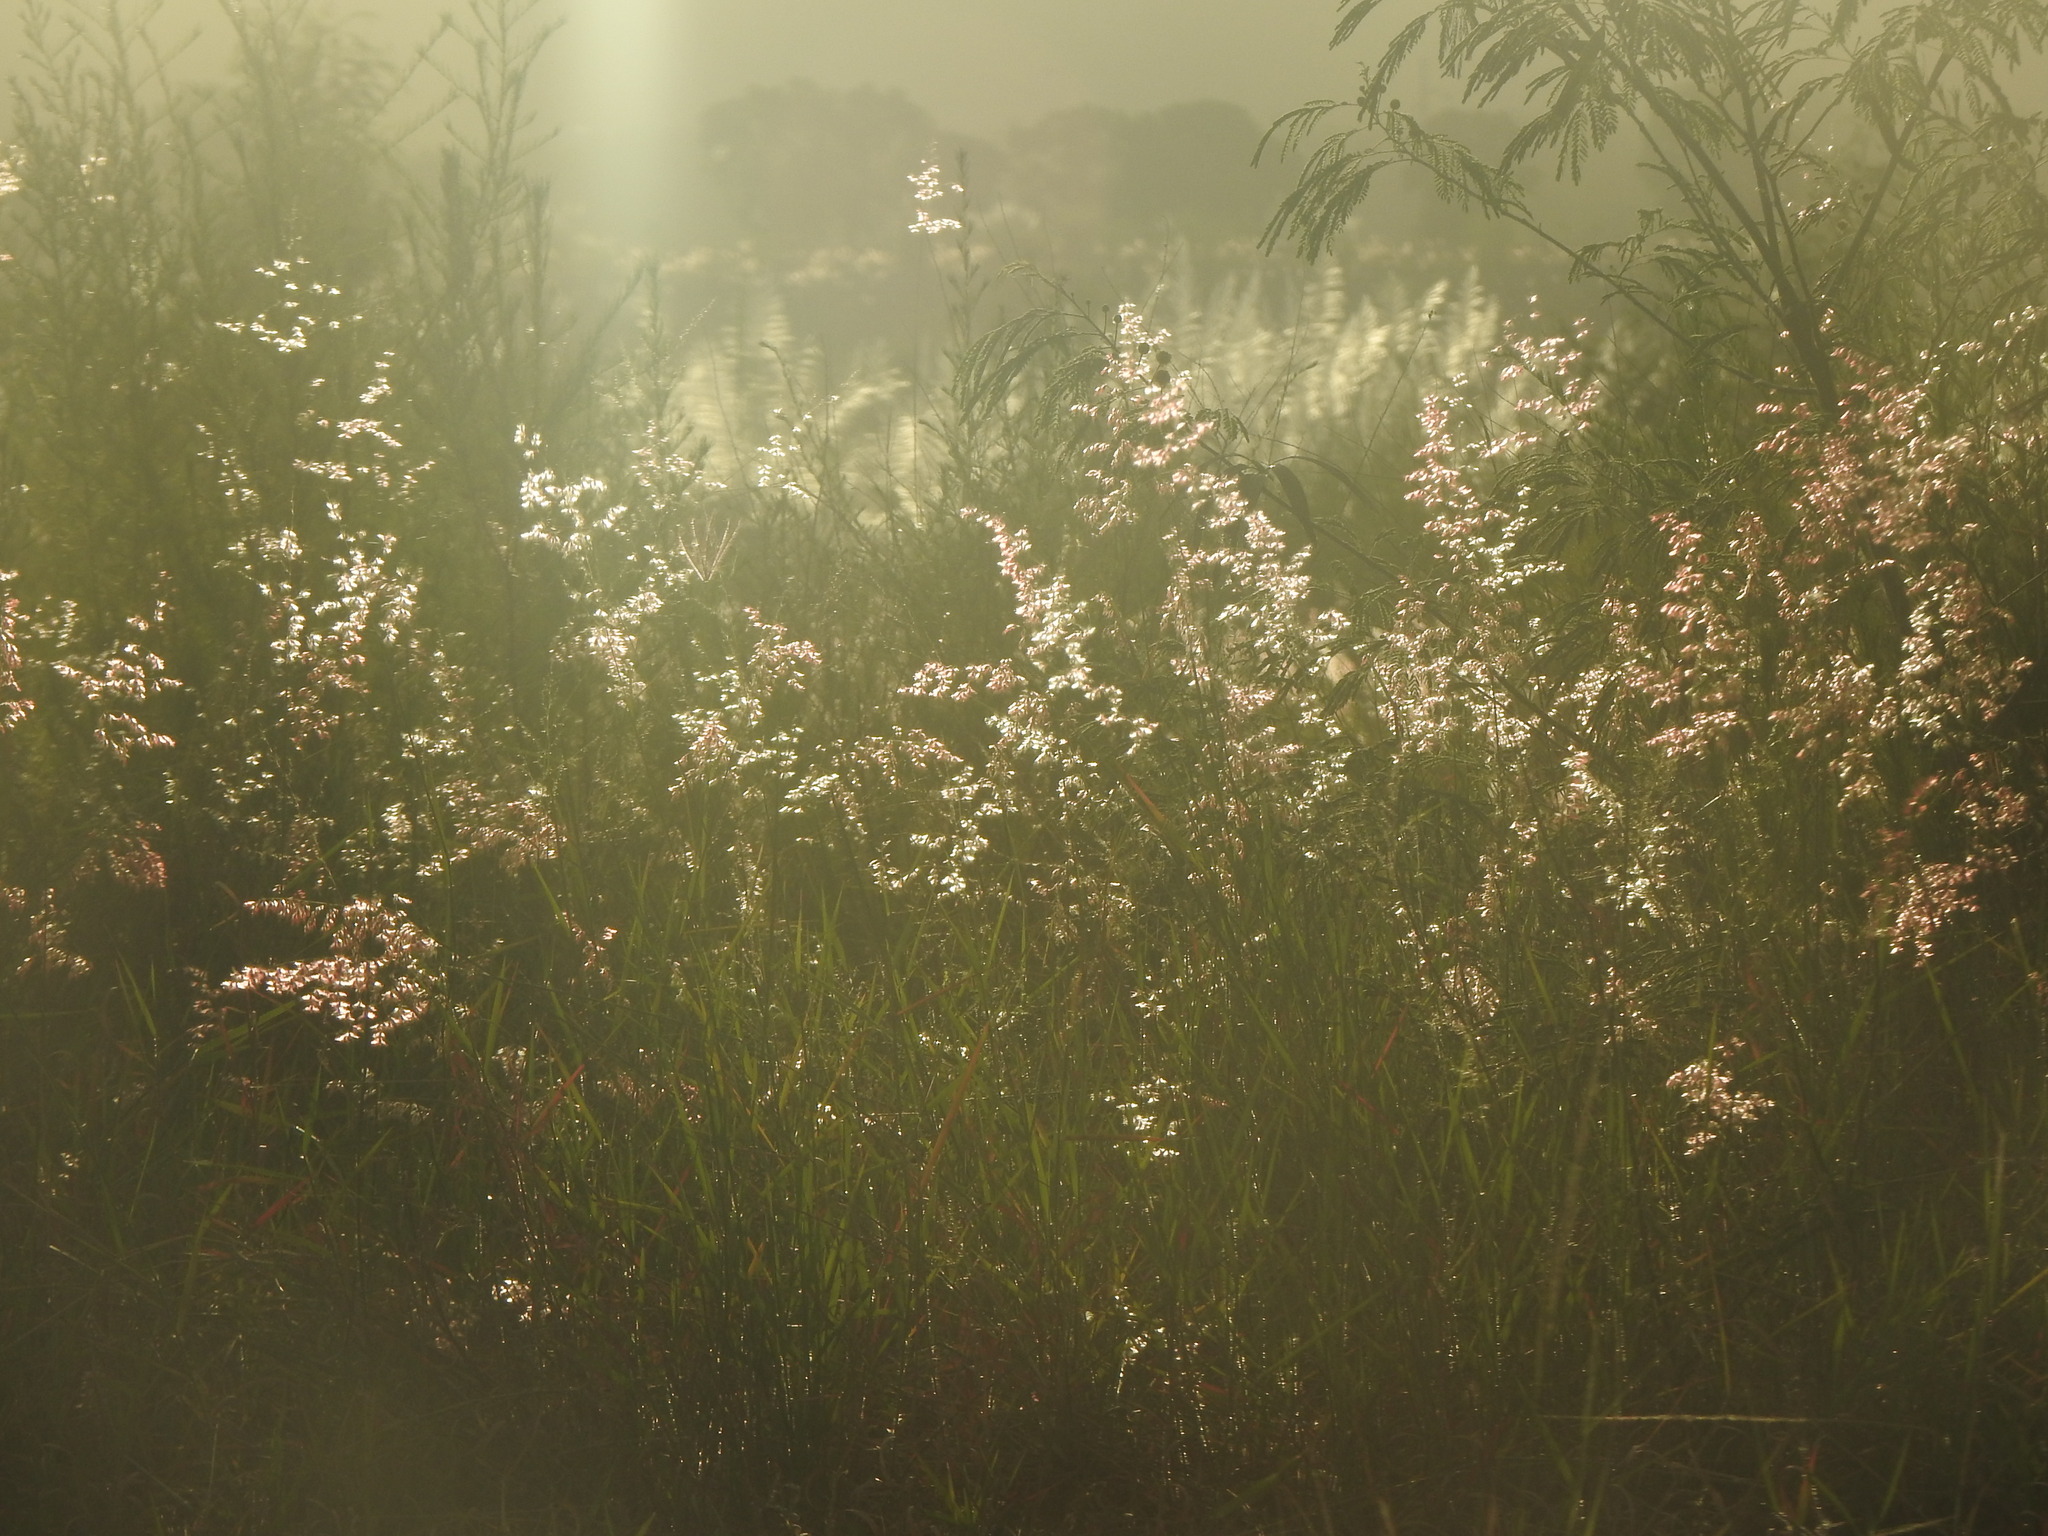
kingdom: Plantae
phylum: Tracheophyta
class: Liliopsida
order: Poales
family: Poaceae
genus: Melinis
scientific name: Melinis repens
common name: Rose natal grass
